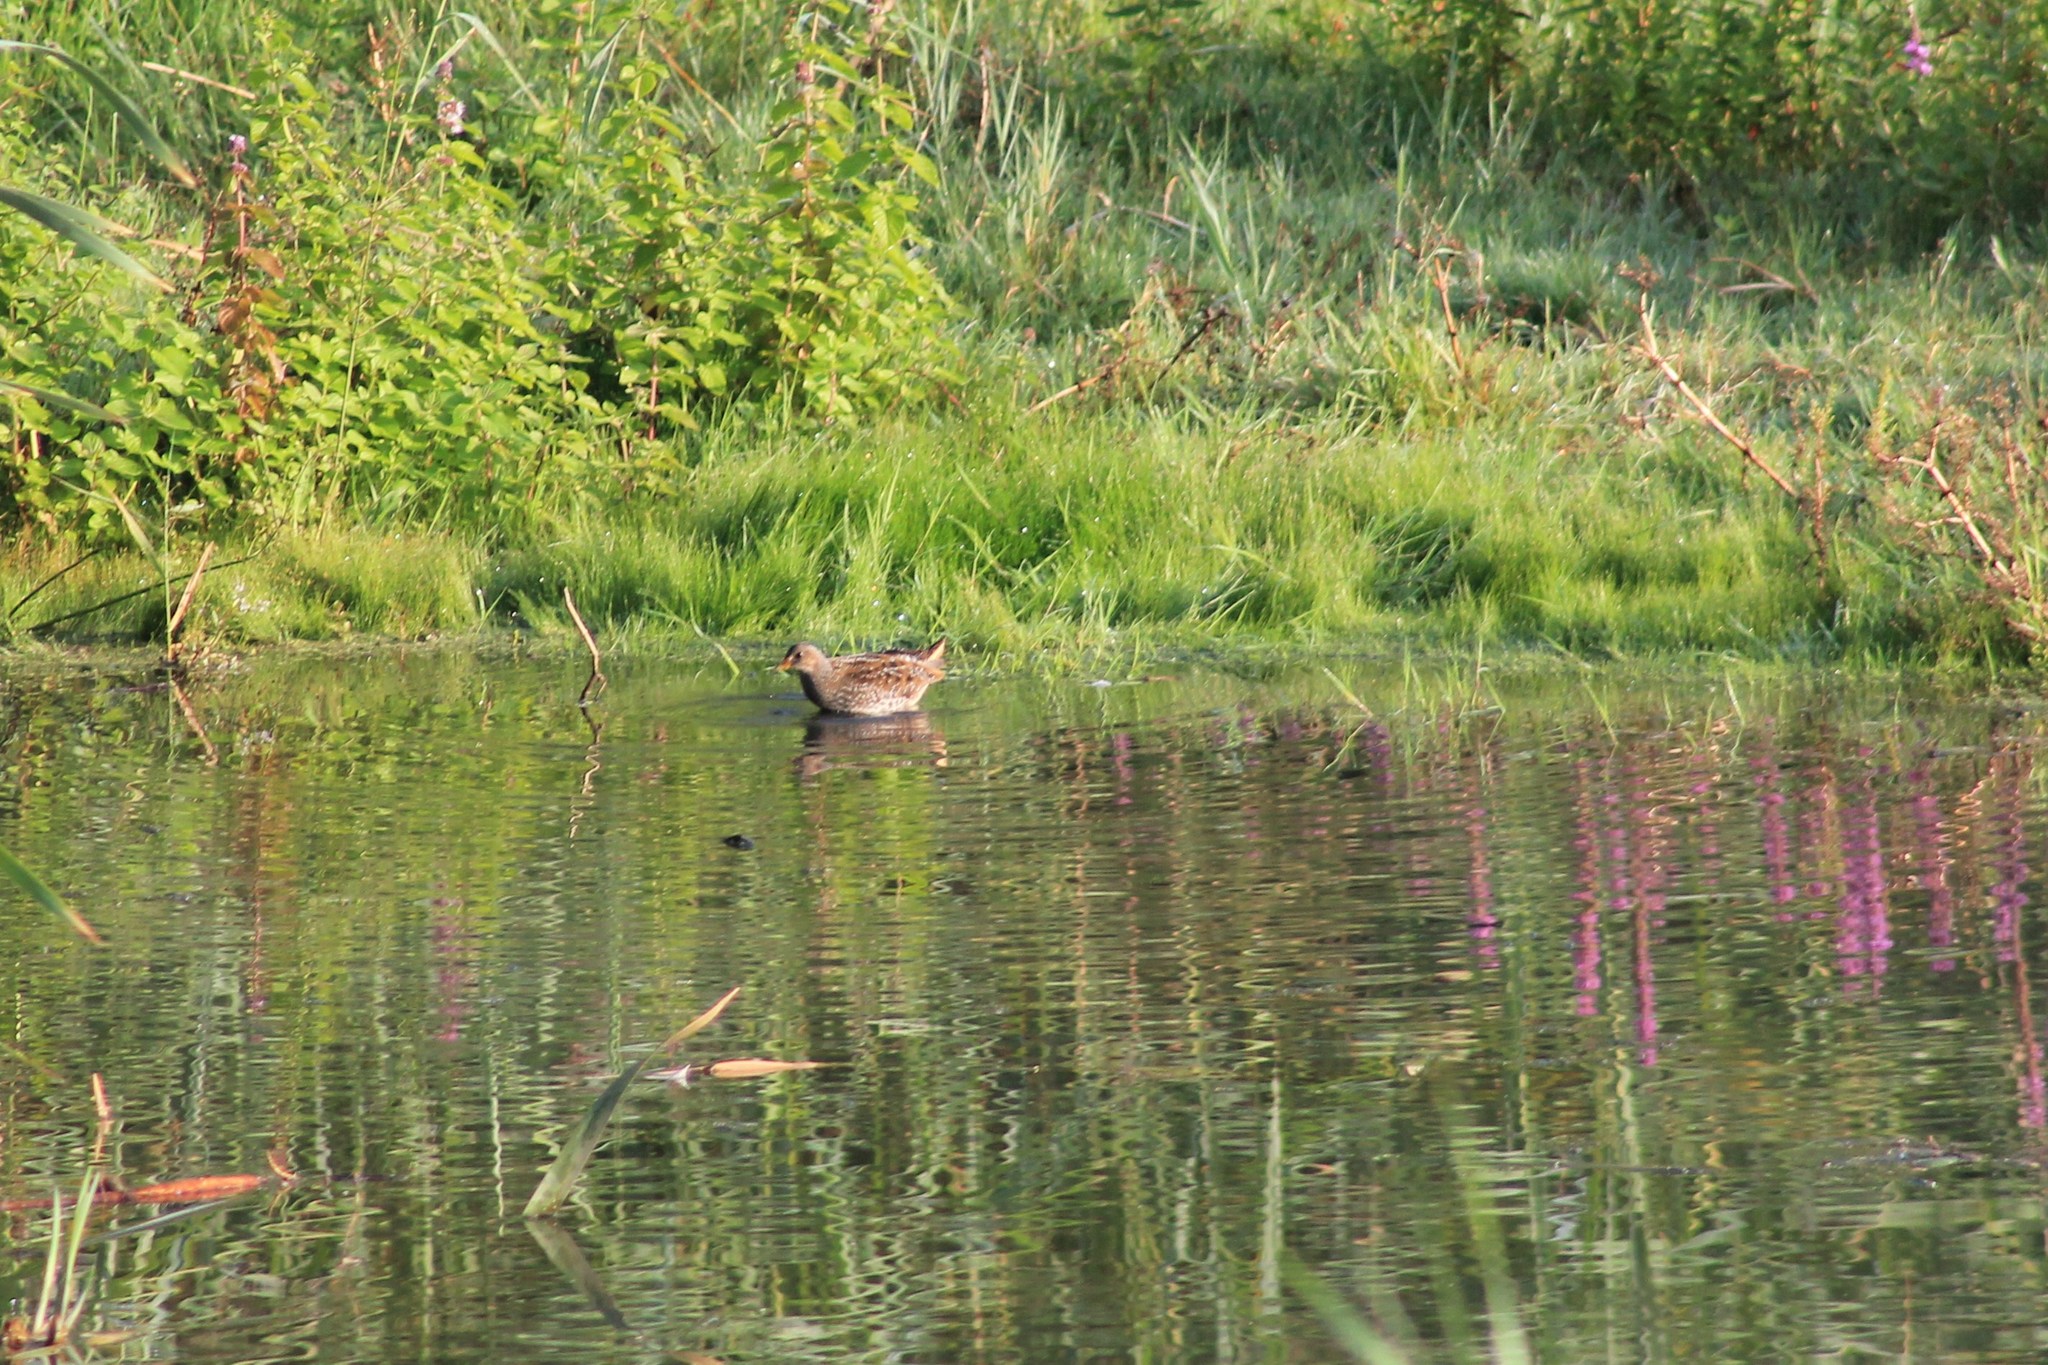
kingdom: Animalia
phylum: Chordata
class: Aves
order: Gruiformes
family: Rallidae
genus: Porzana
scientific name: Porzana porzana
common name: Spotted crake
